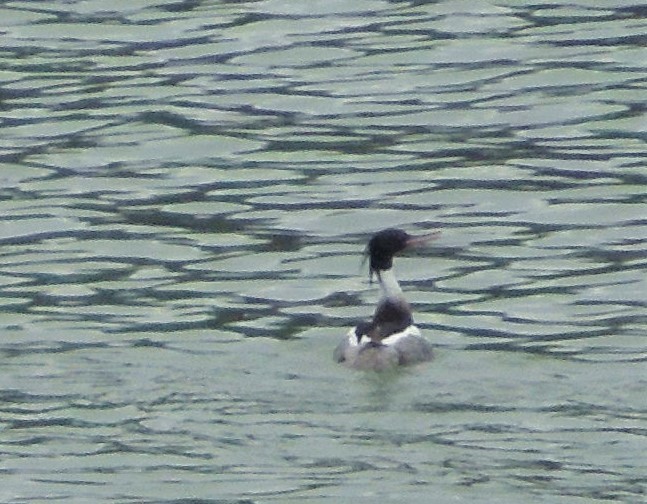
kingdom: Animalia
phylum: Chordata
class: Aves
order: Anseriformes
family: Anatidae
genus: Mergus
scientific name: Mergus serrator
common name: Red-breasted merganser
